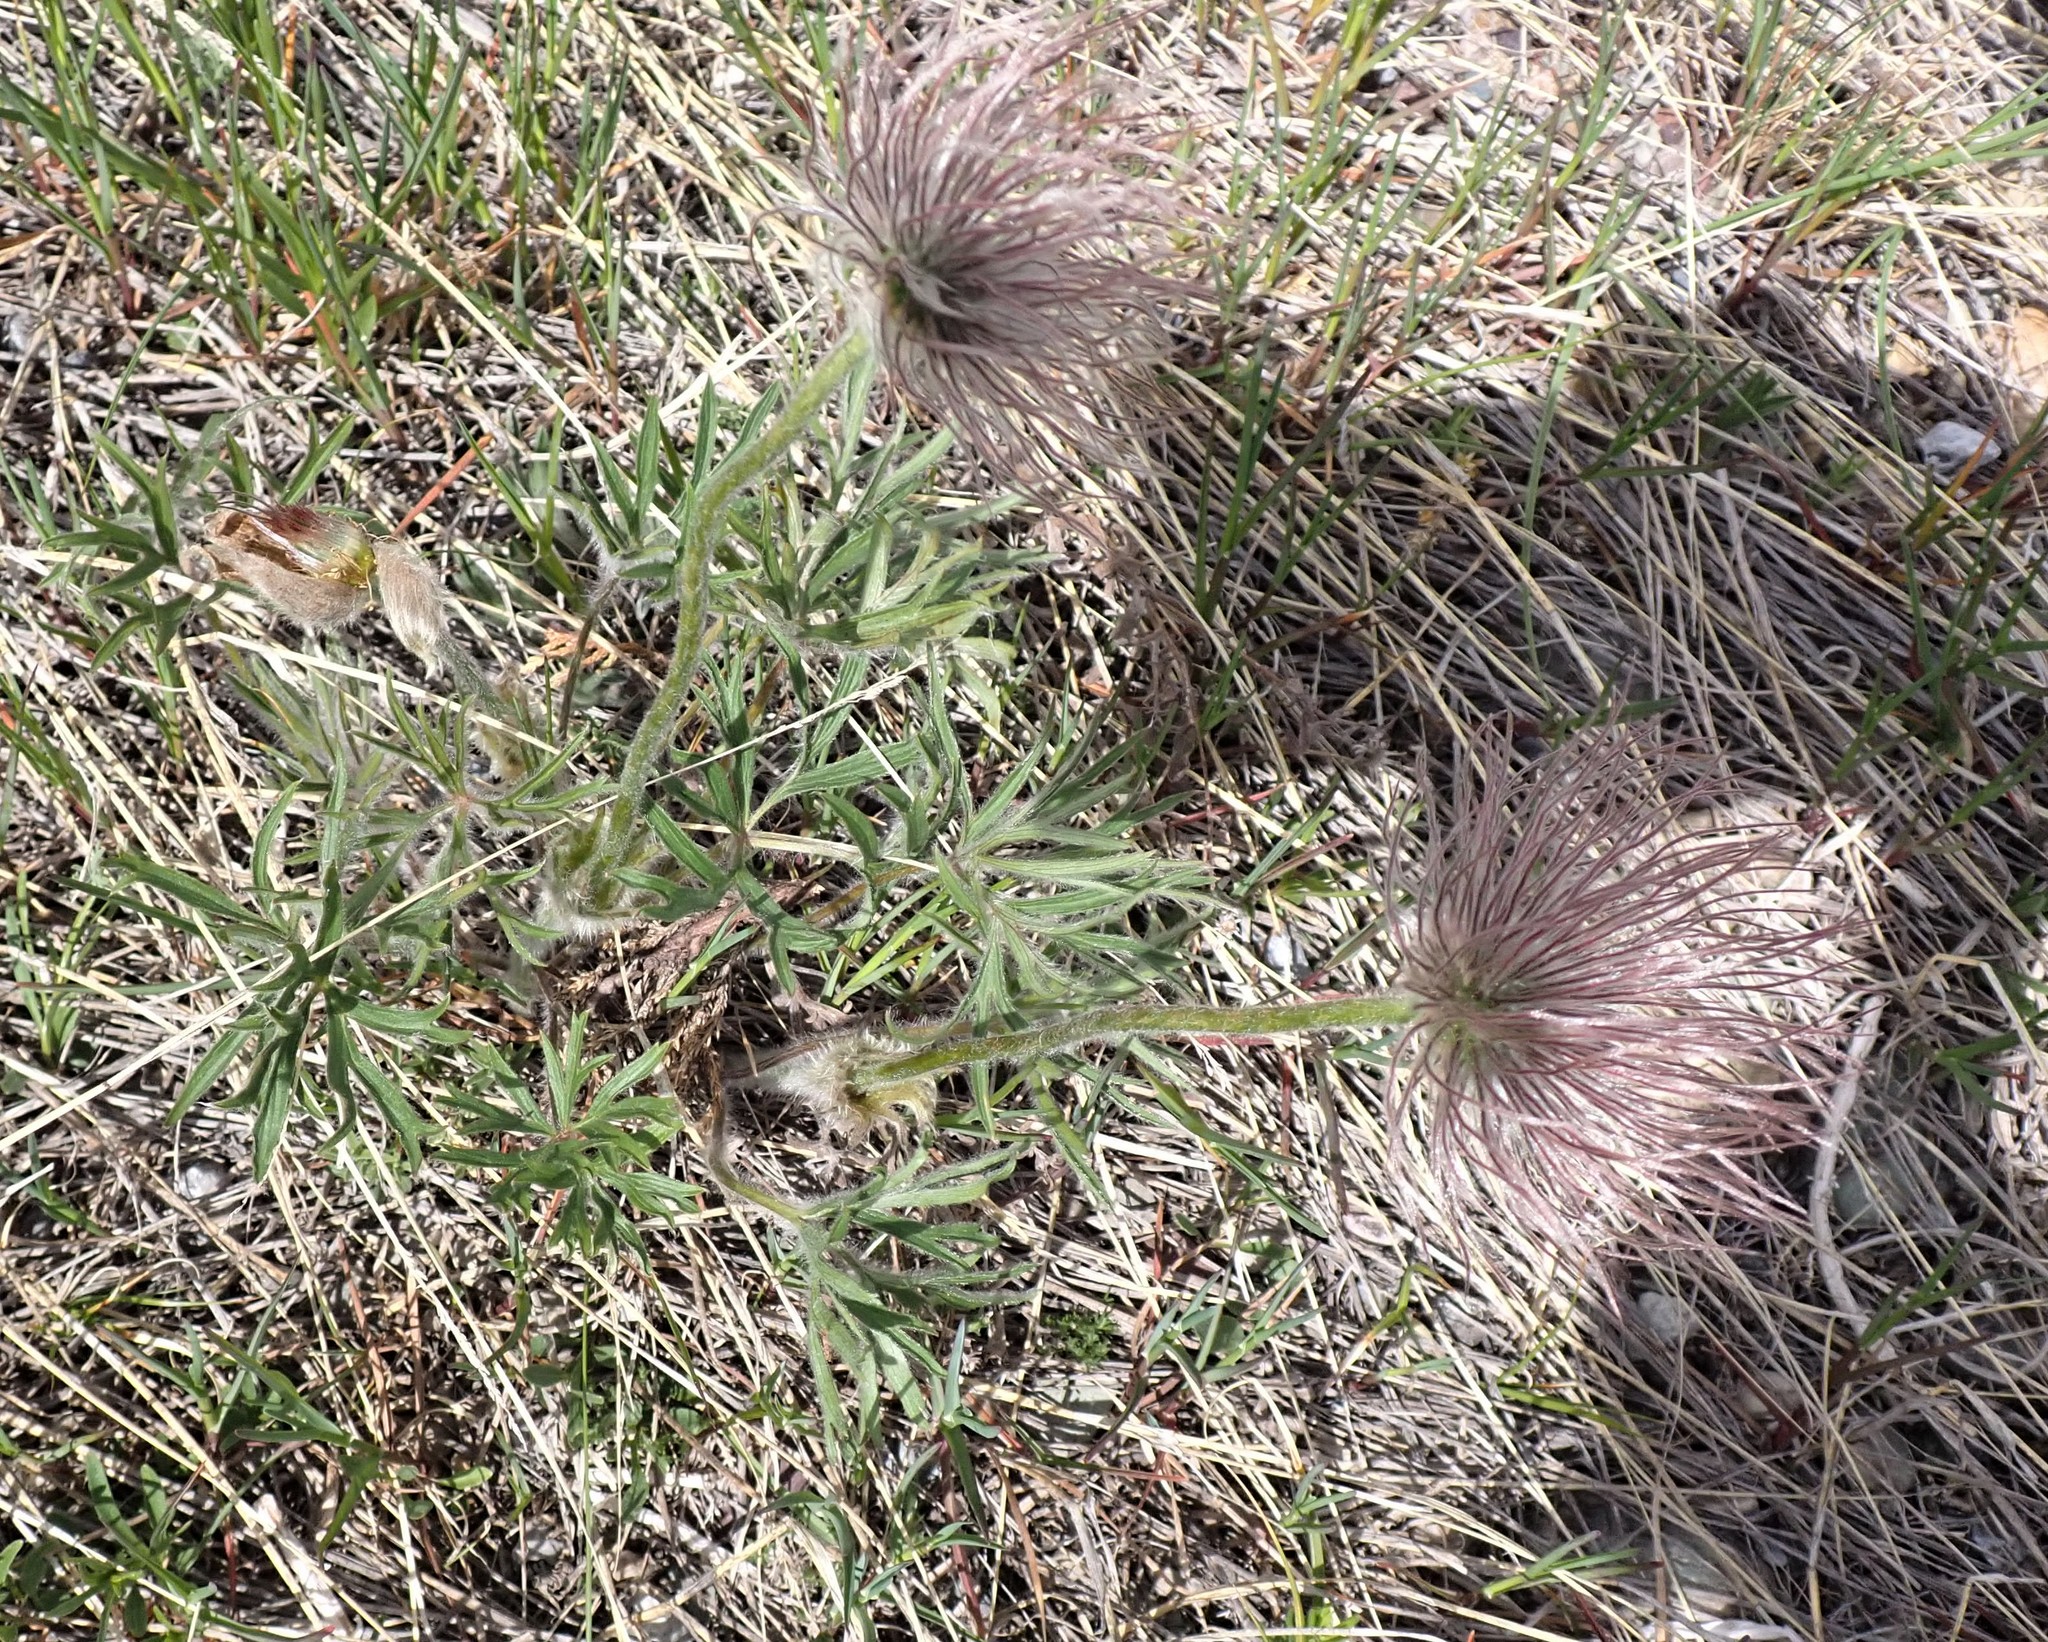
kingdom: Plantae
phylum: Tracheophyta
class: Magnoliopsida
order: Ranunculales
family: Ranunculaceae
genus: Pulsatilla
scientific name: Pulsatilla nuttalliana
